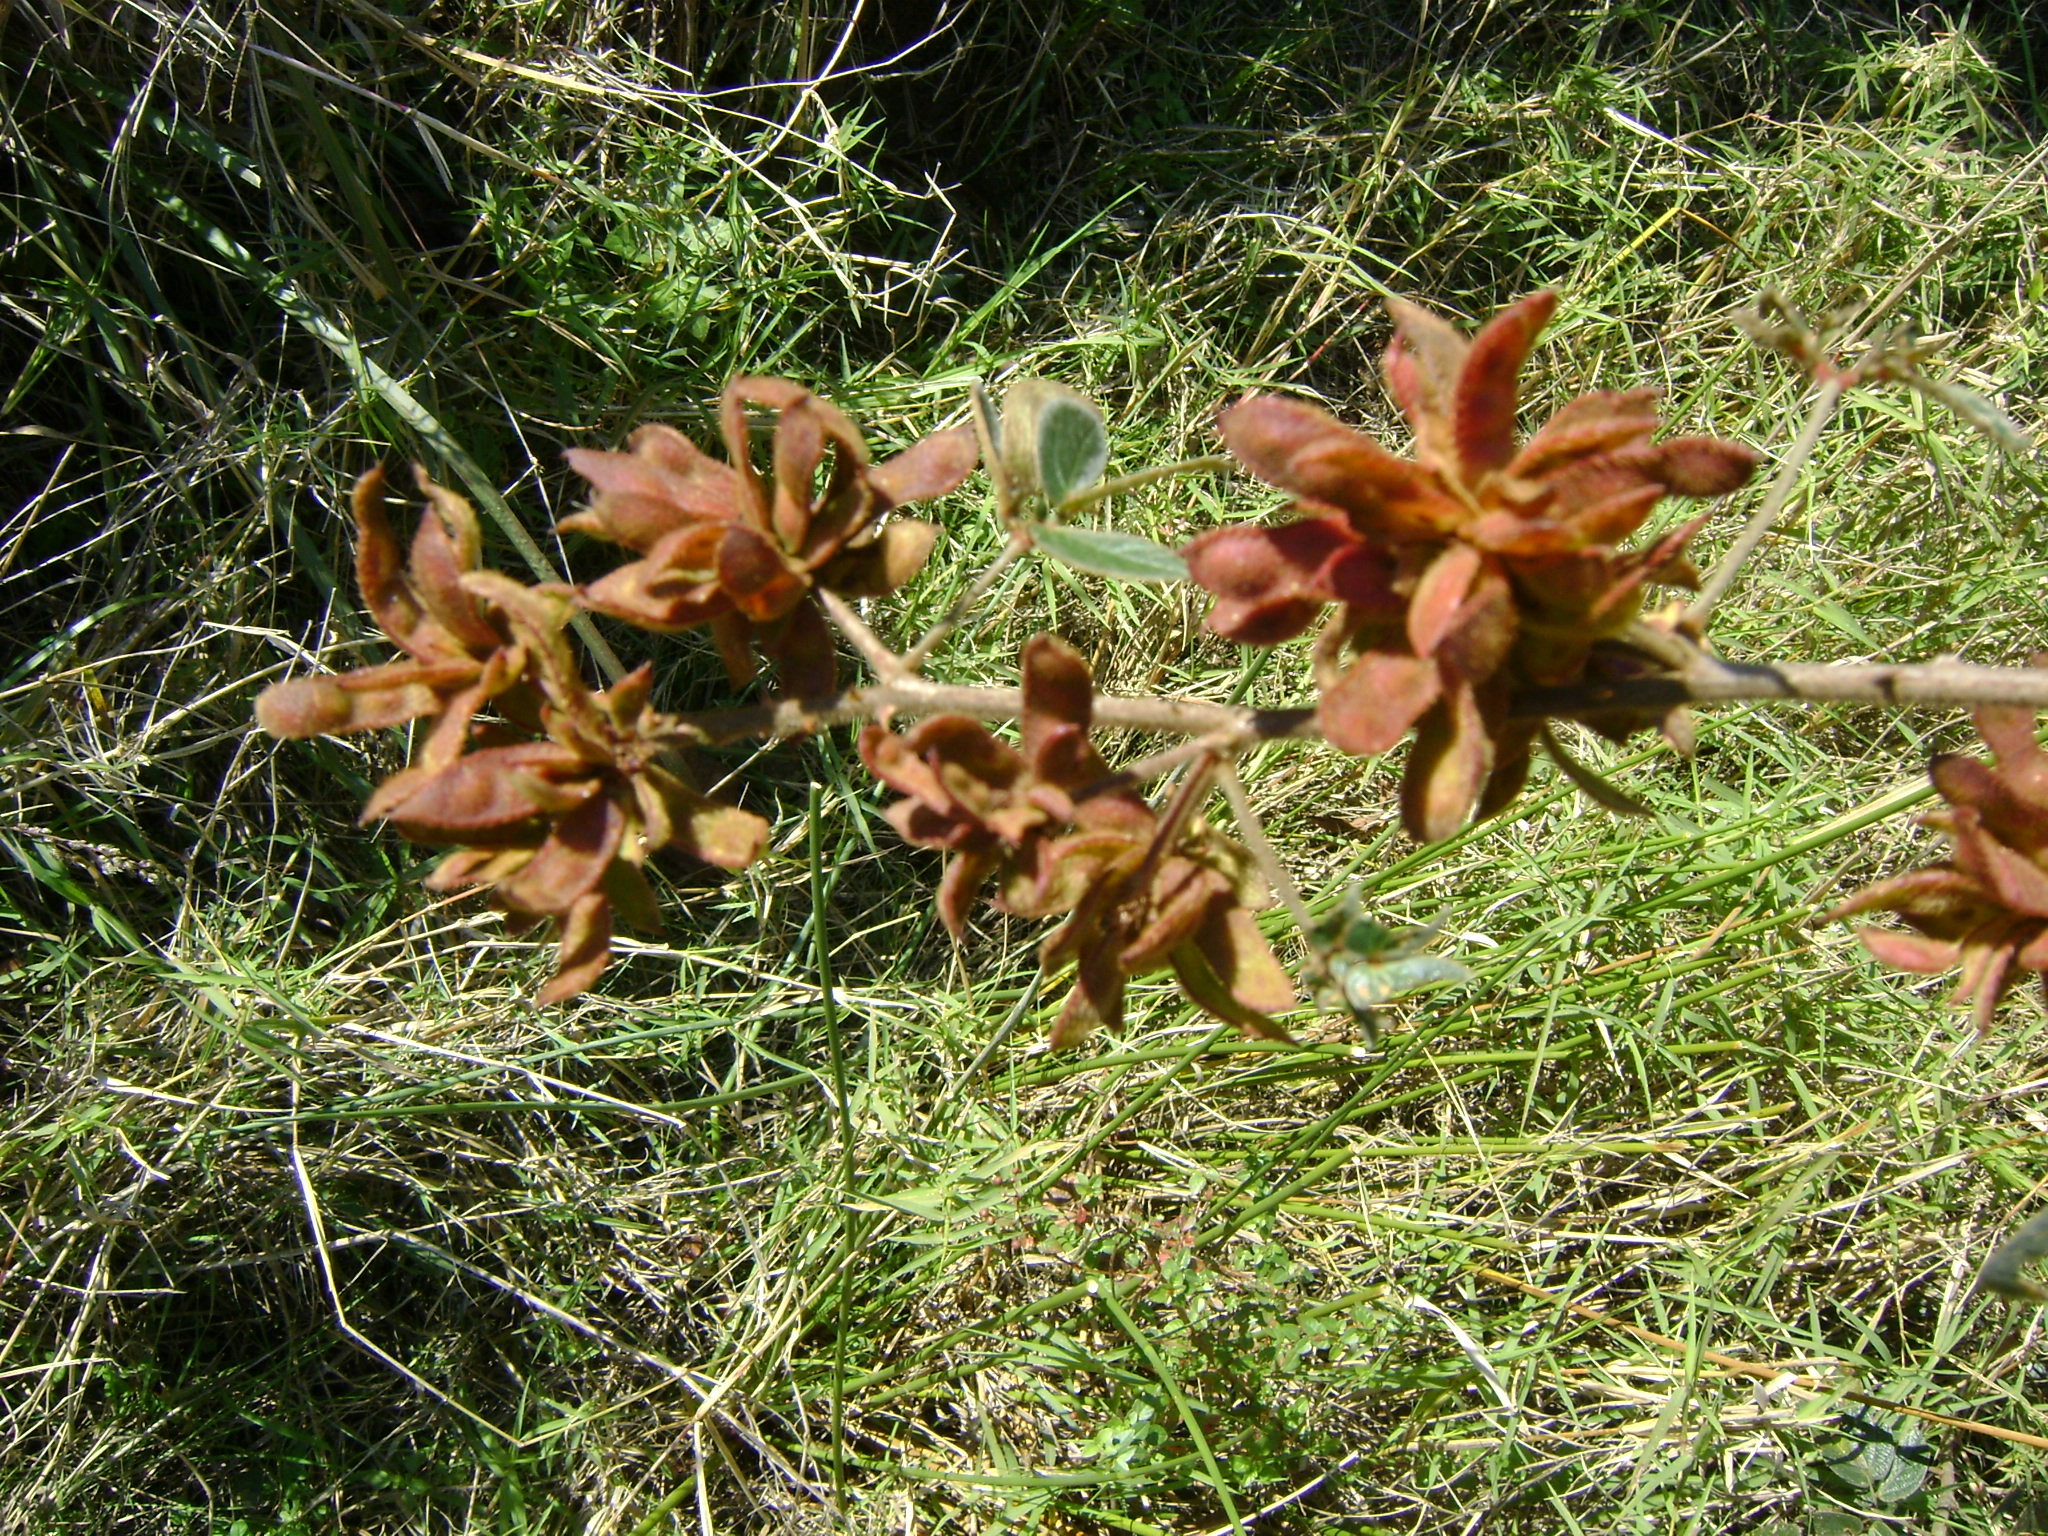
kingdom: Plantae
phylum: Tracheophyta
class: Magnoliopsida
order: Fabales
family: Fabaceae
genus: Mimosa
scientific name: Mimosa albida
